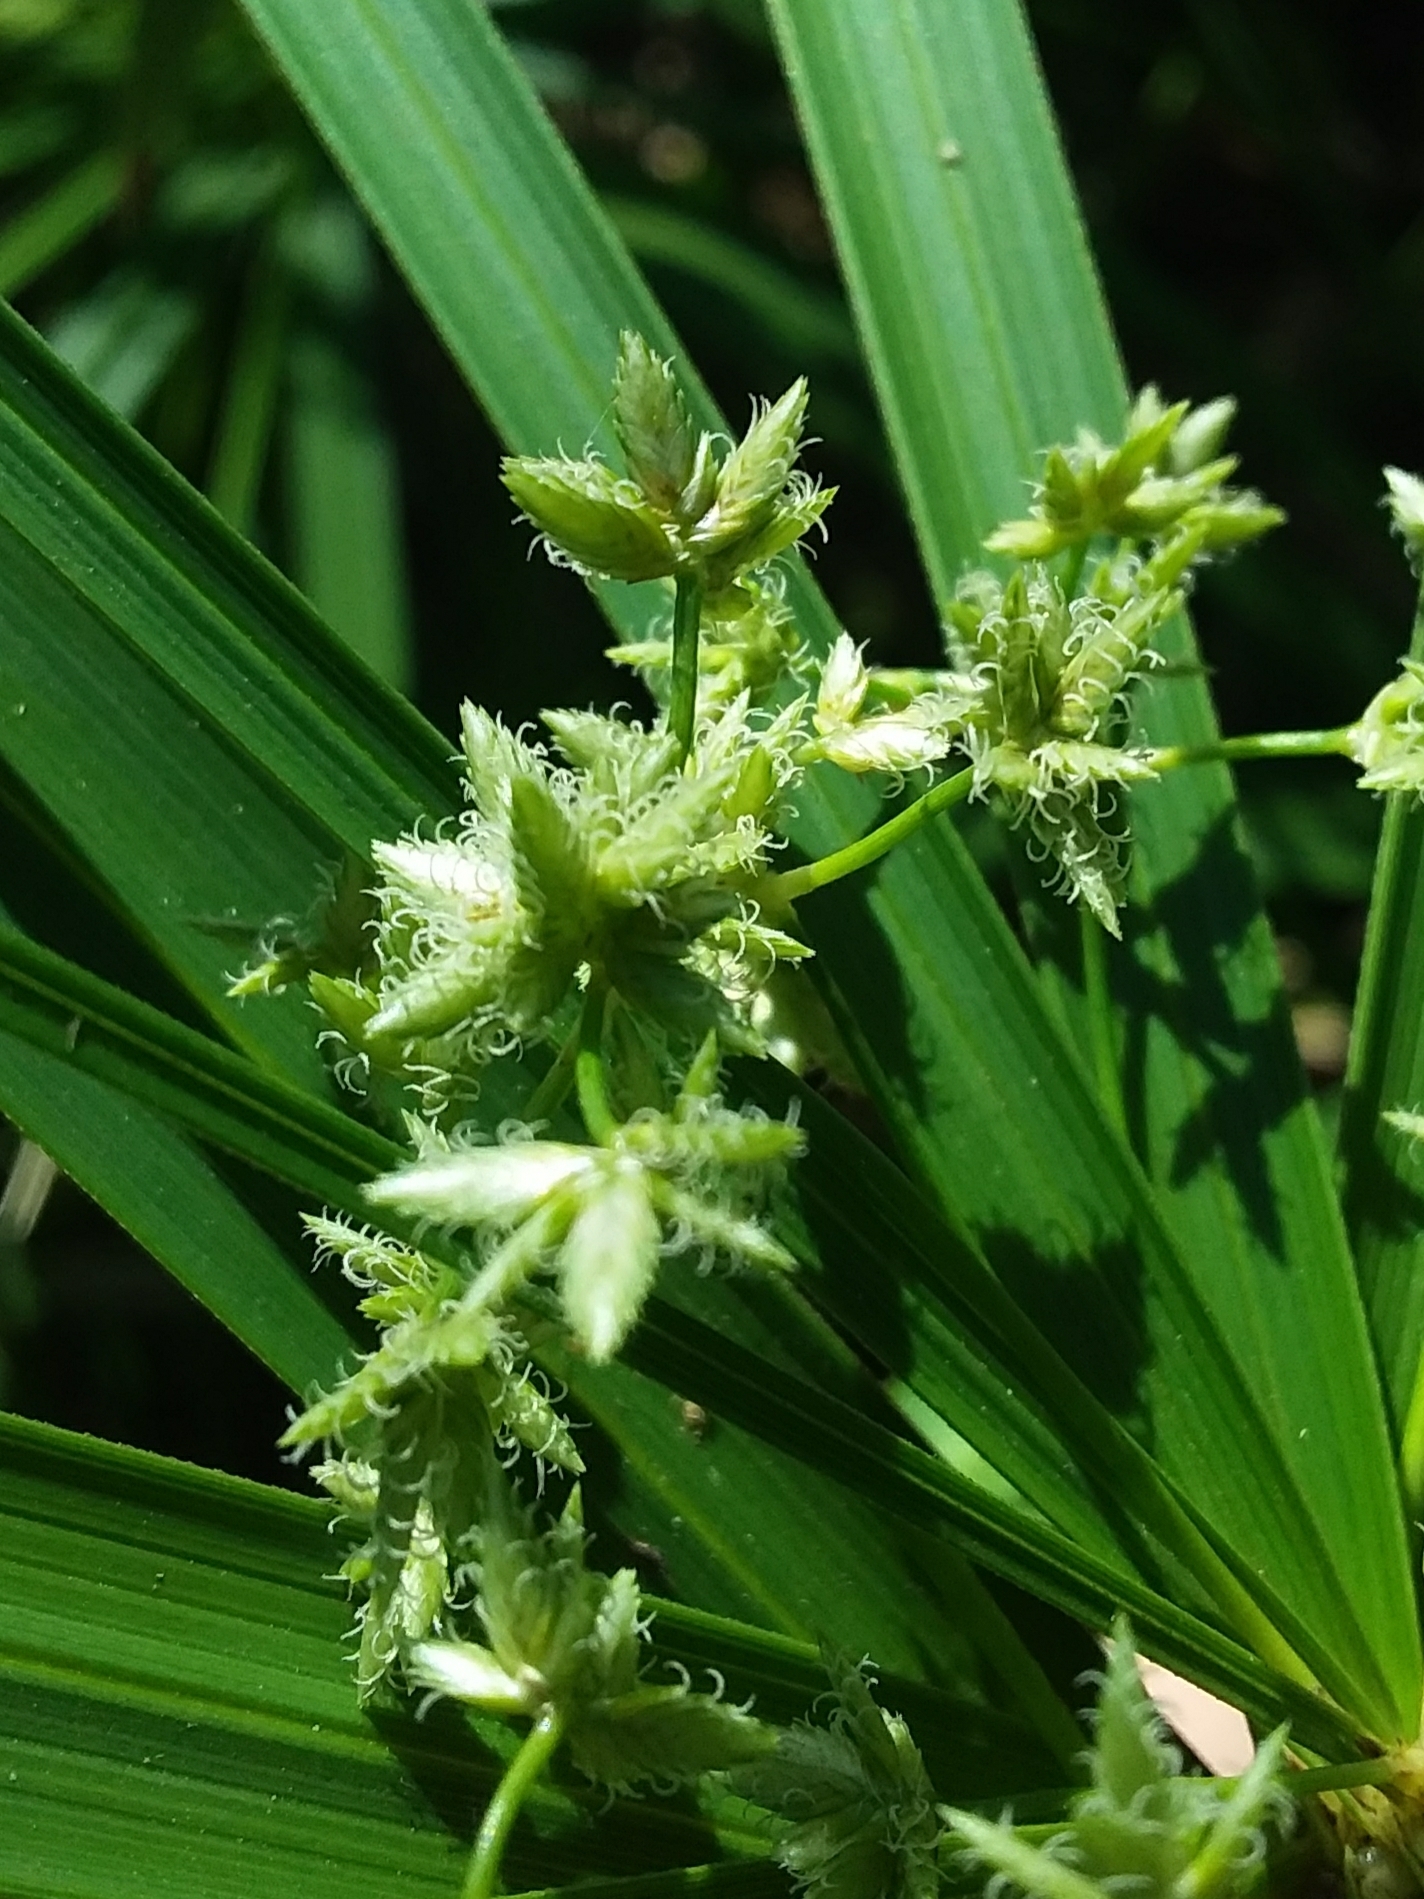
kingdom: Plantae
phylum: Tracheophyta
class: Liliopsida
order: Poales
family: Cyperaceae
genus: Cyperus
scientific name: Cyperus alternifolius
